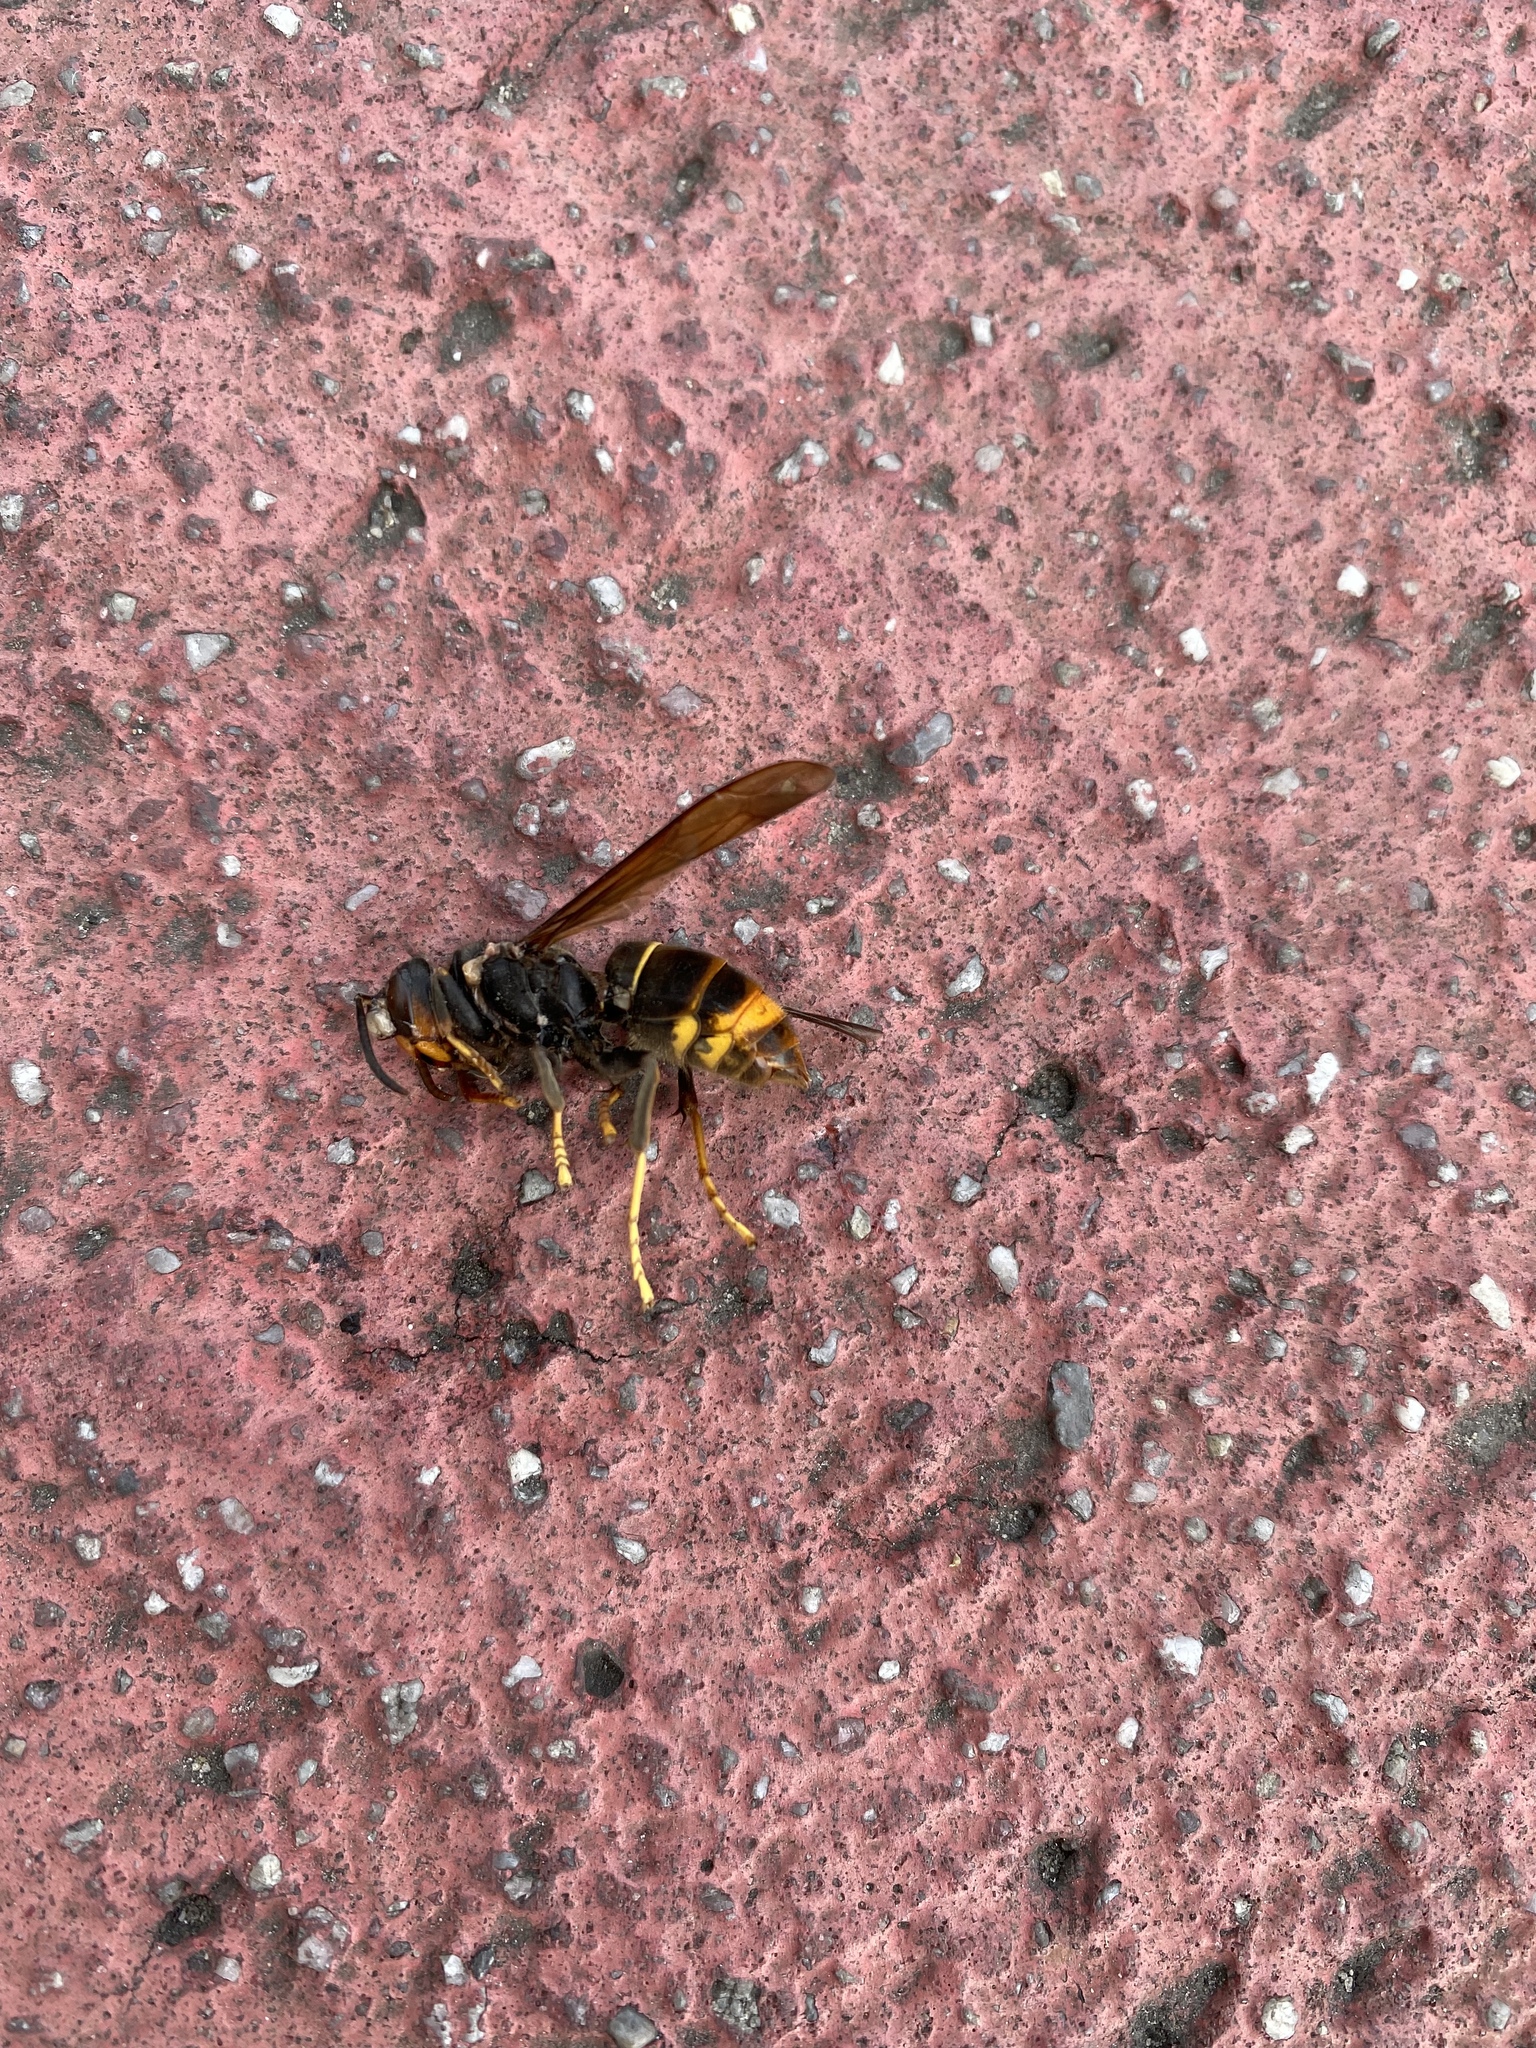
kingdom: Animalia
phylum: Arthropoda
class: Insecta
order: Hymenoptera
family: Vespidae
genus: Vespa
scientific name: Vespa velutina
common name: Asian hornet
